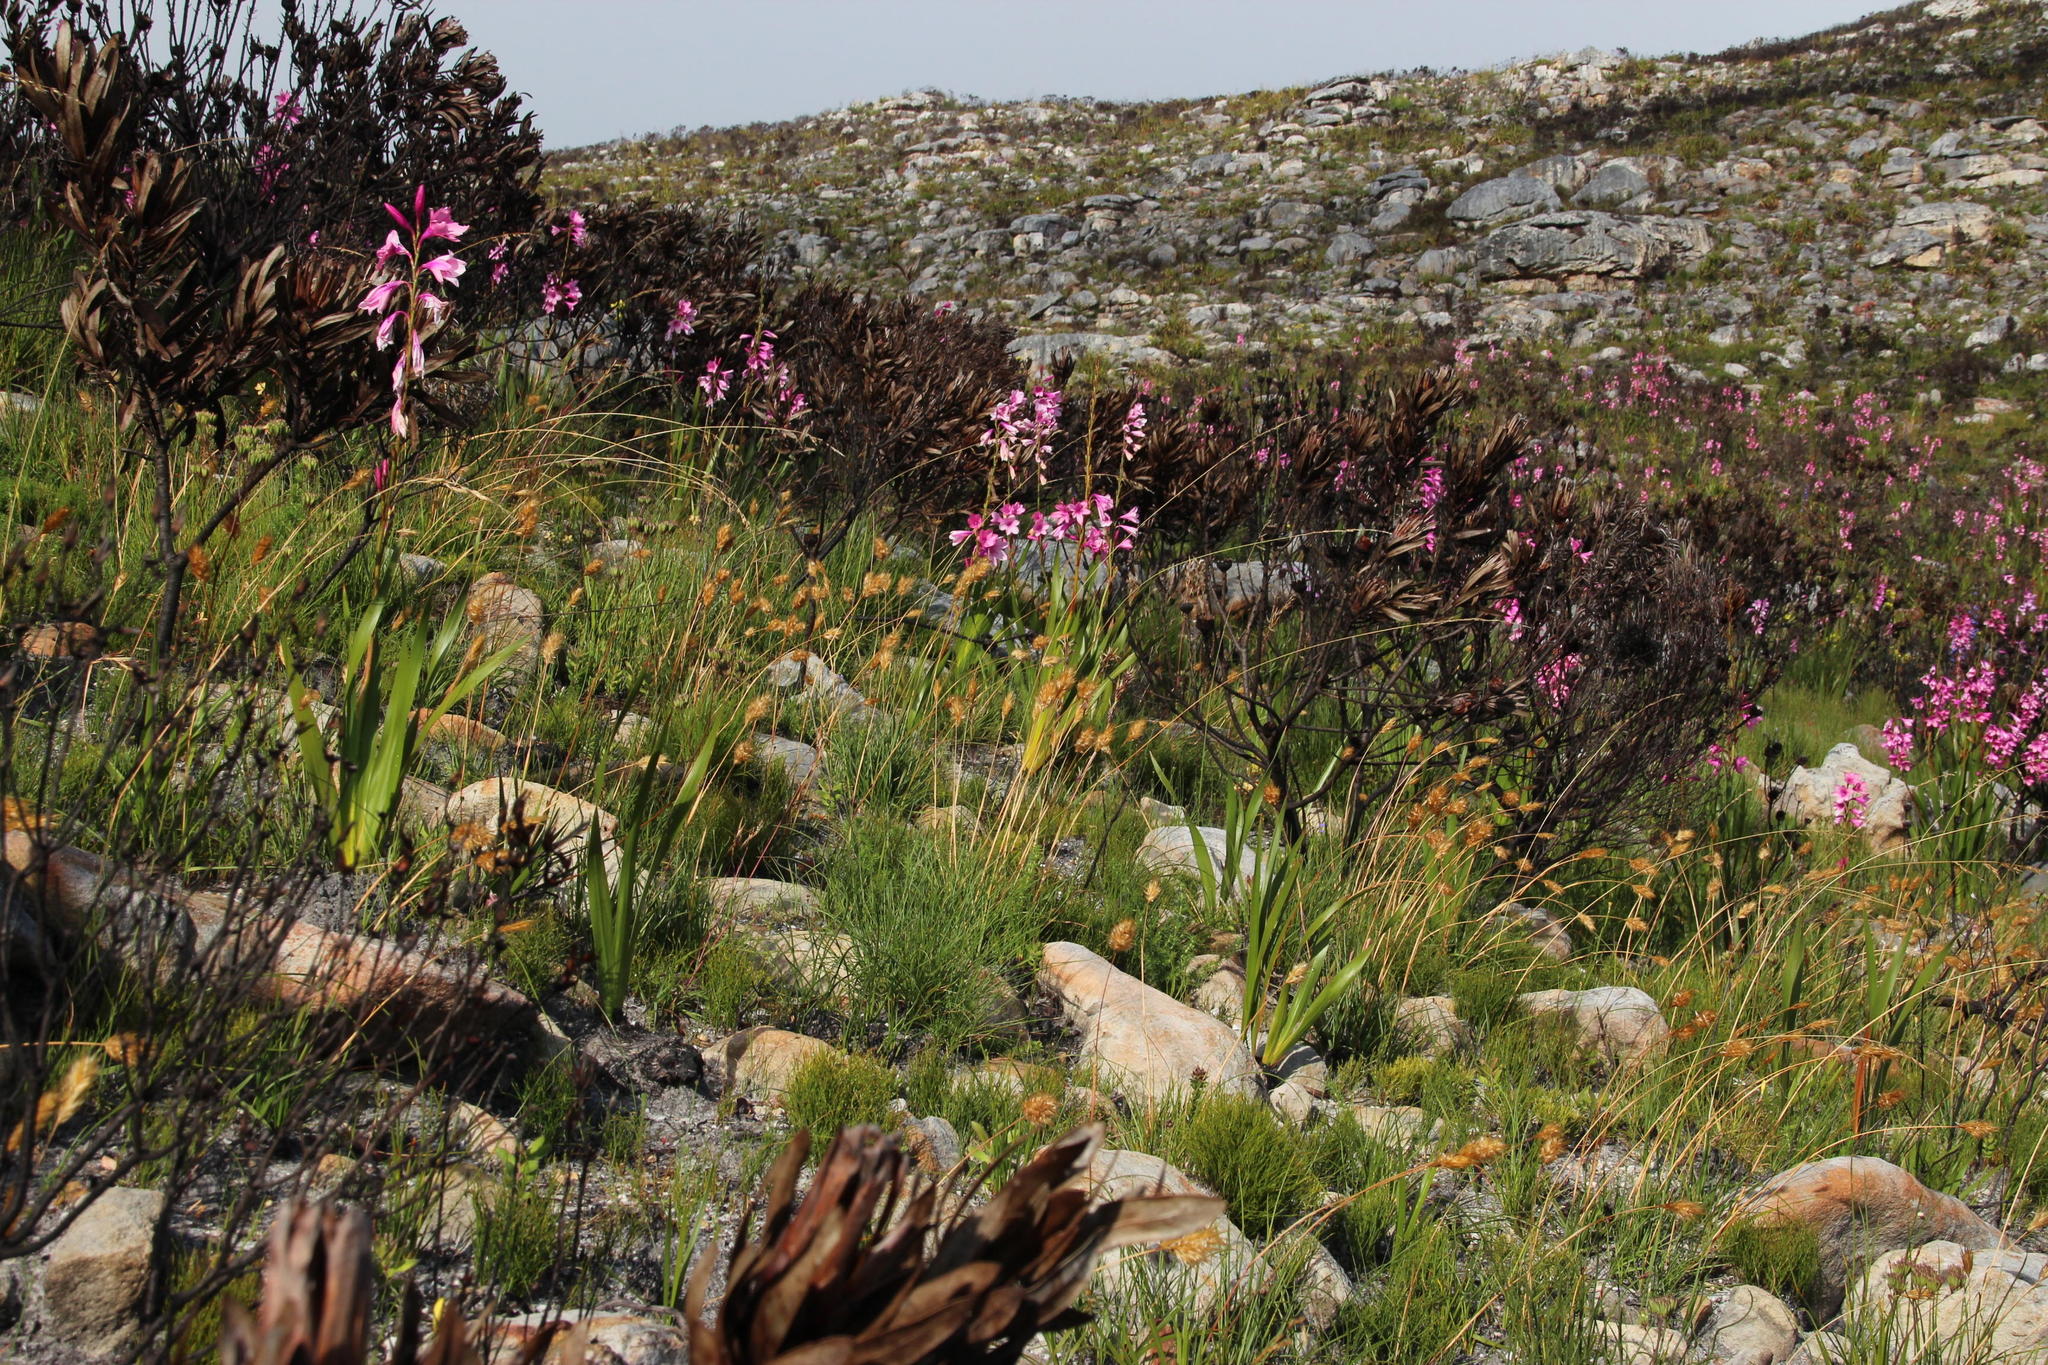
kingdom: Plantae
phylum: Tracheophyta
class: Liliopsida
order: Asparagales
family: Iridaceae
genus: Watsonia
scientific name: Watsonia borbonica
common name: Bugle-lily
